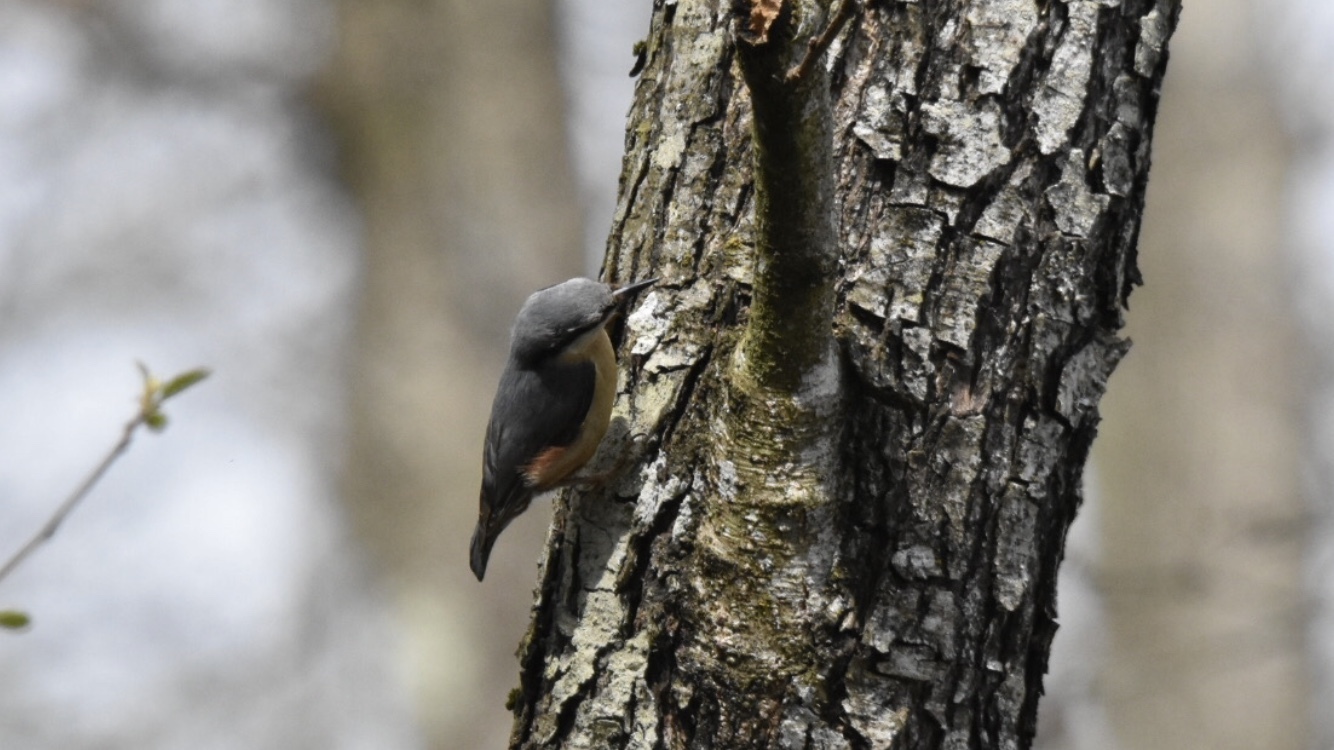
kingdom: Animalia
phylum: Chordata
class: Aves
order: Passeriformes
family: Sittidae
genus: Sitta
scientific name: Sitta europaea
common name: Eurasian nuthatch
